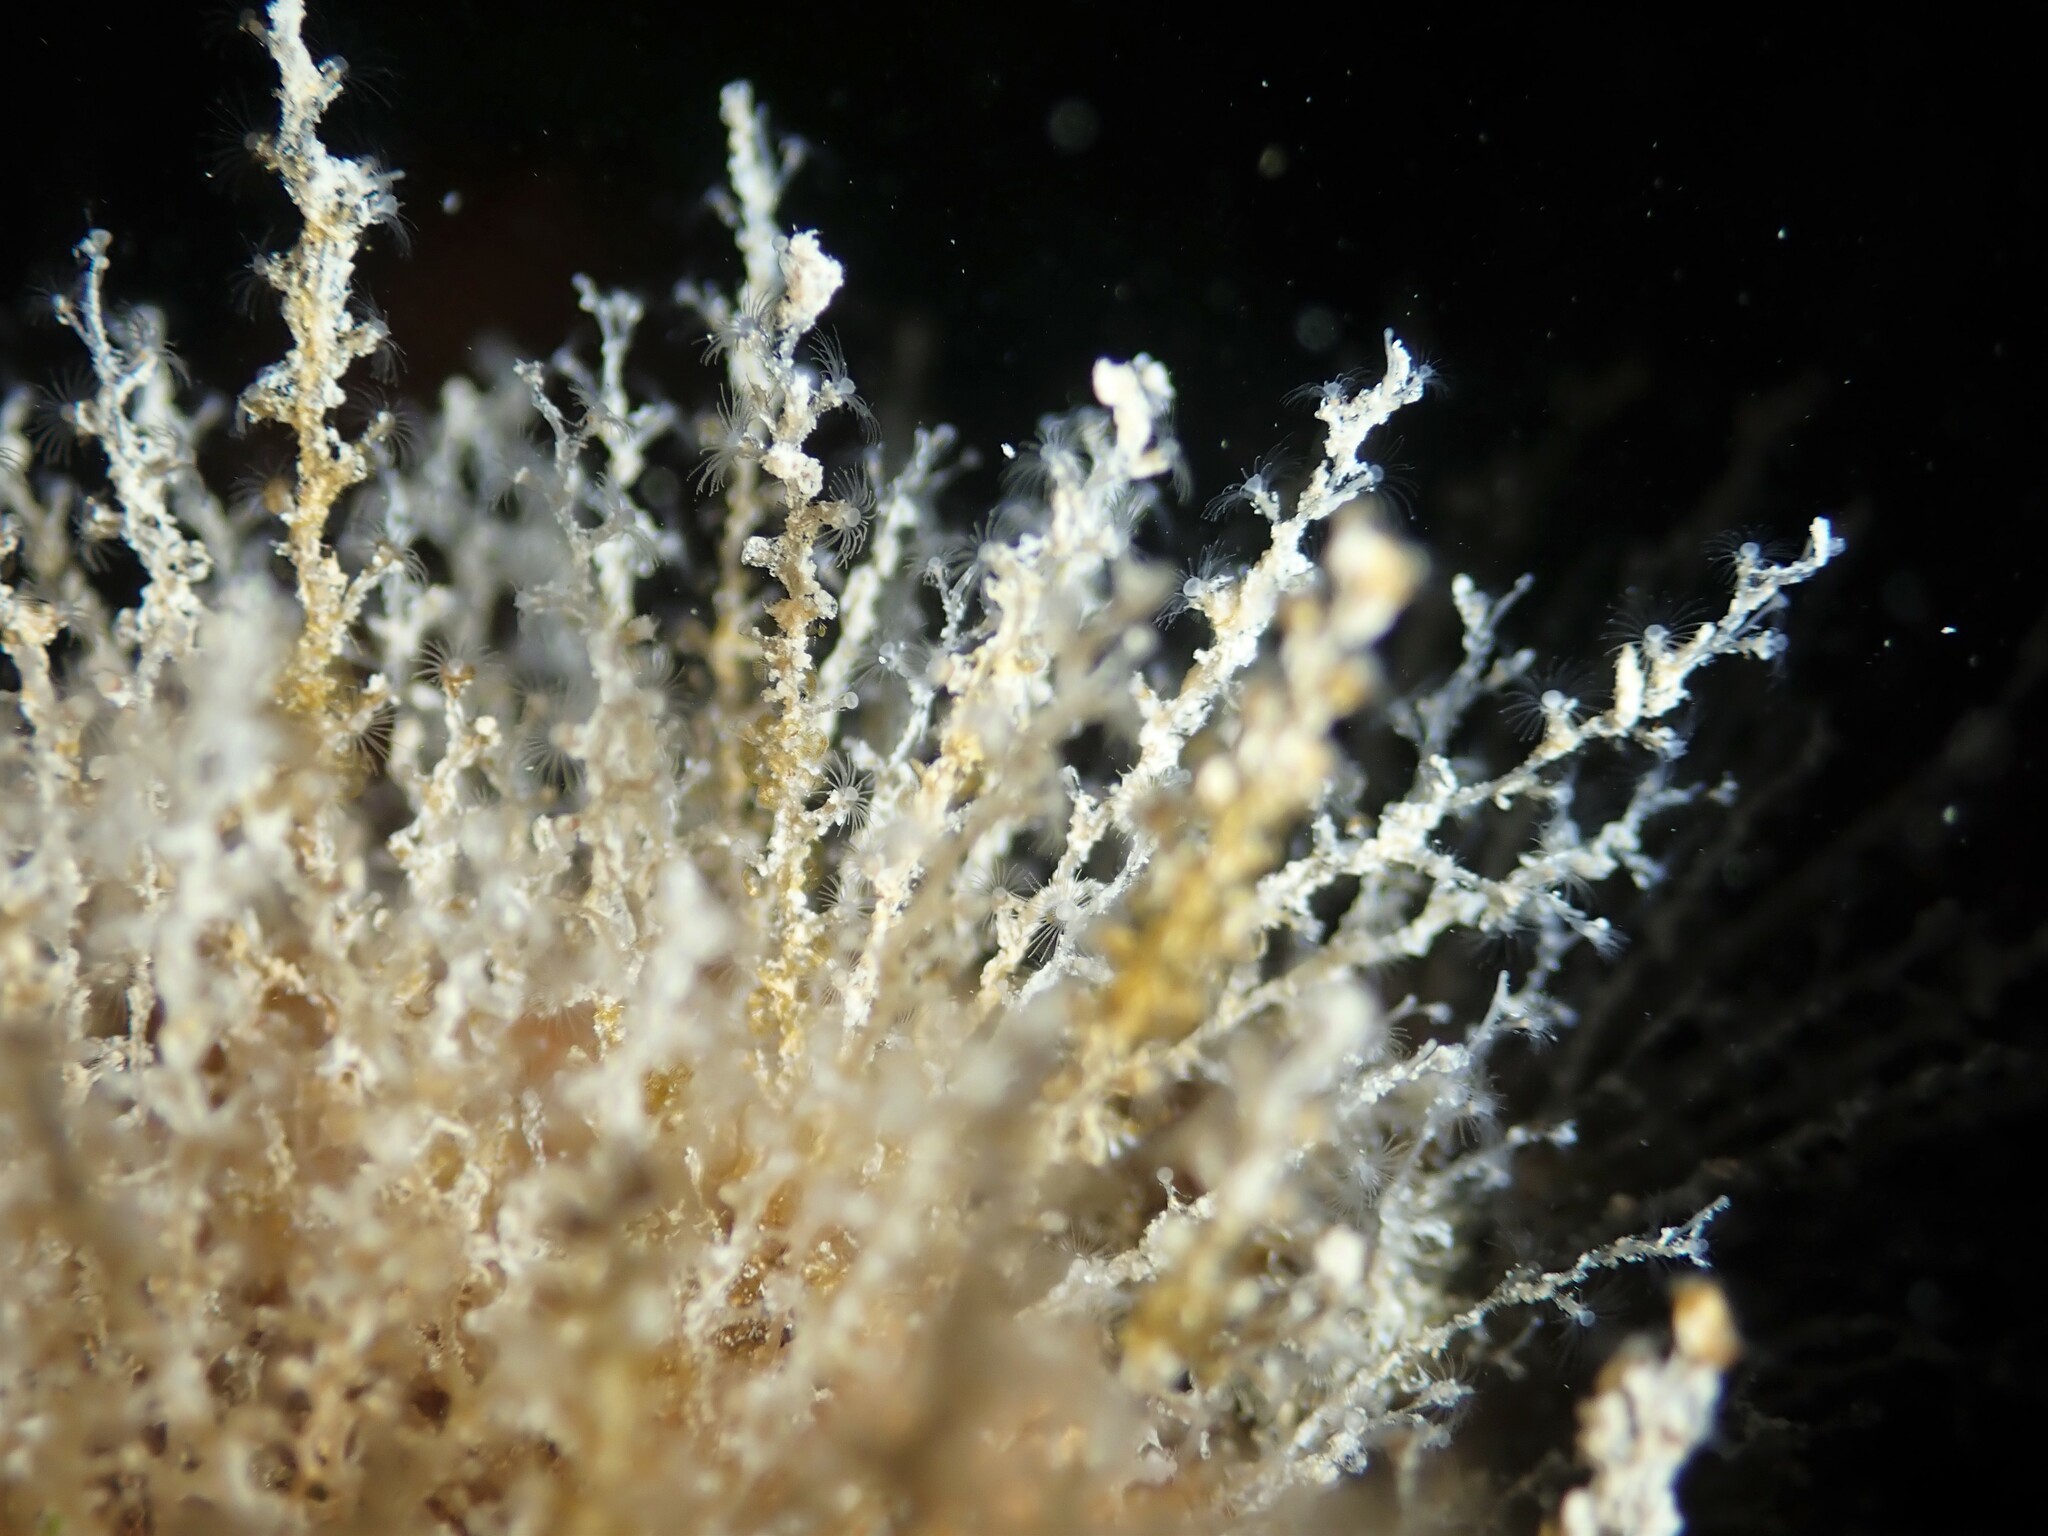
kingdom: Animalia
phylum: Cnidaria
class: Hydrozoa
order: Leptothecata
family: Campanulariidae
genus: Obelia
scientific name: Obelia geniculata
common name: Bell hydroid
